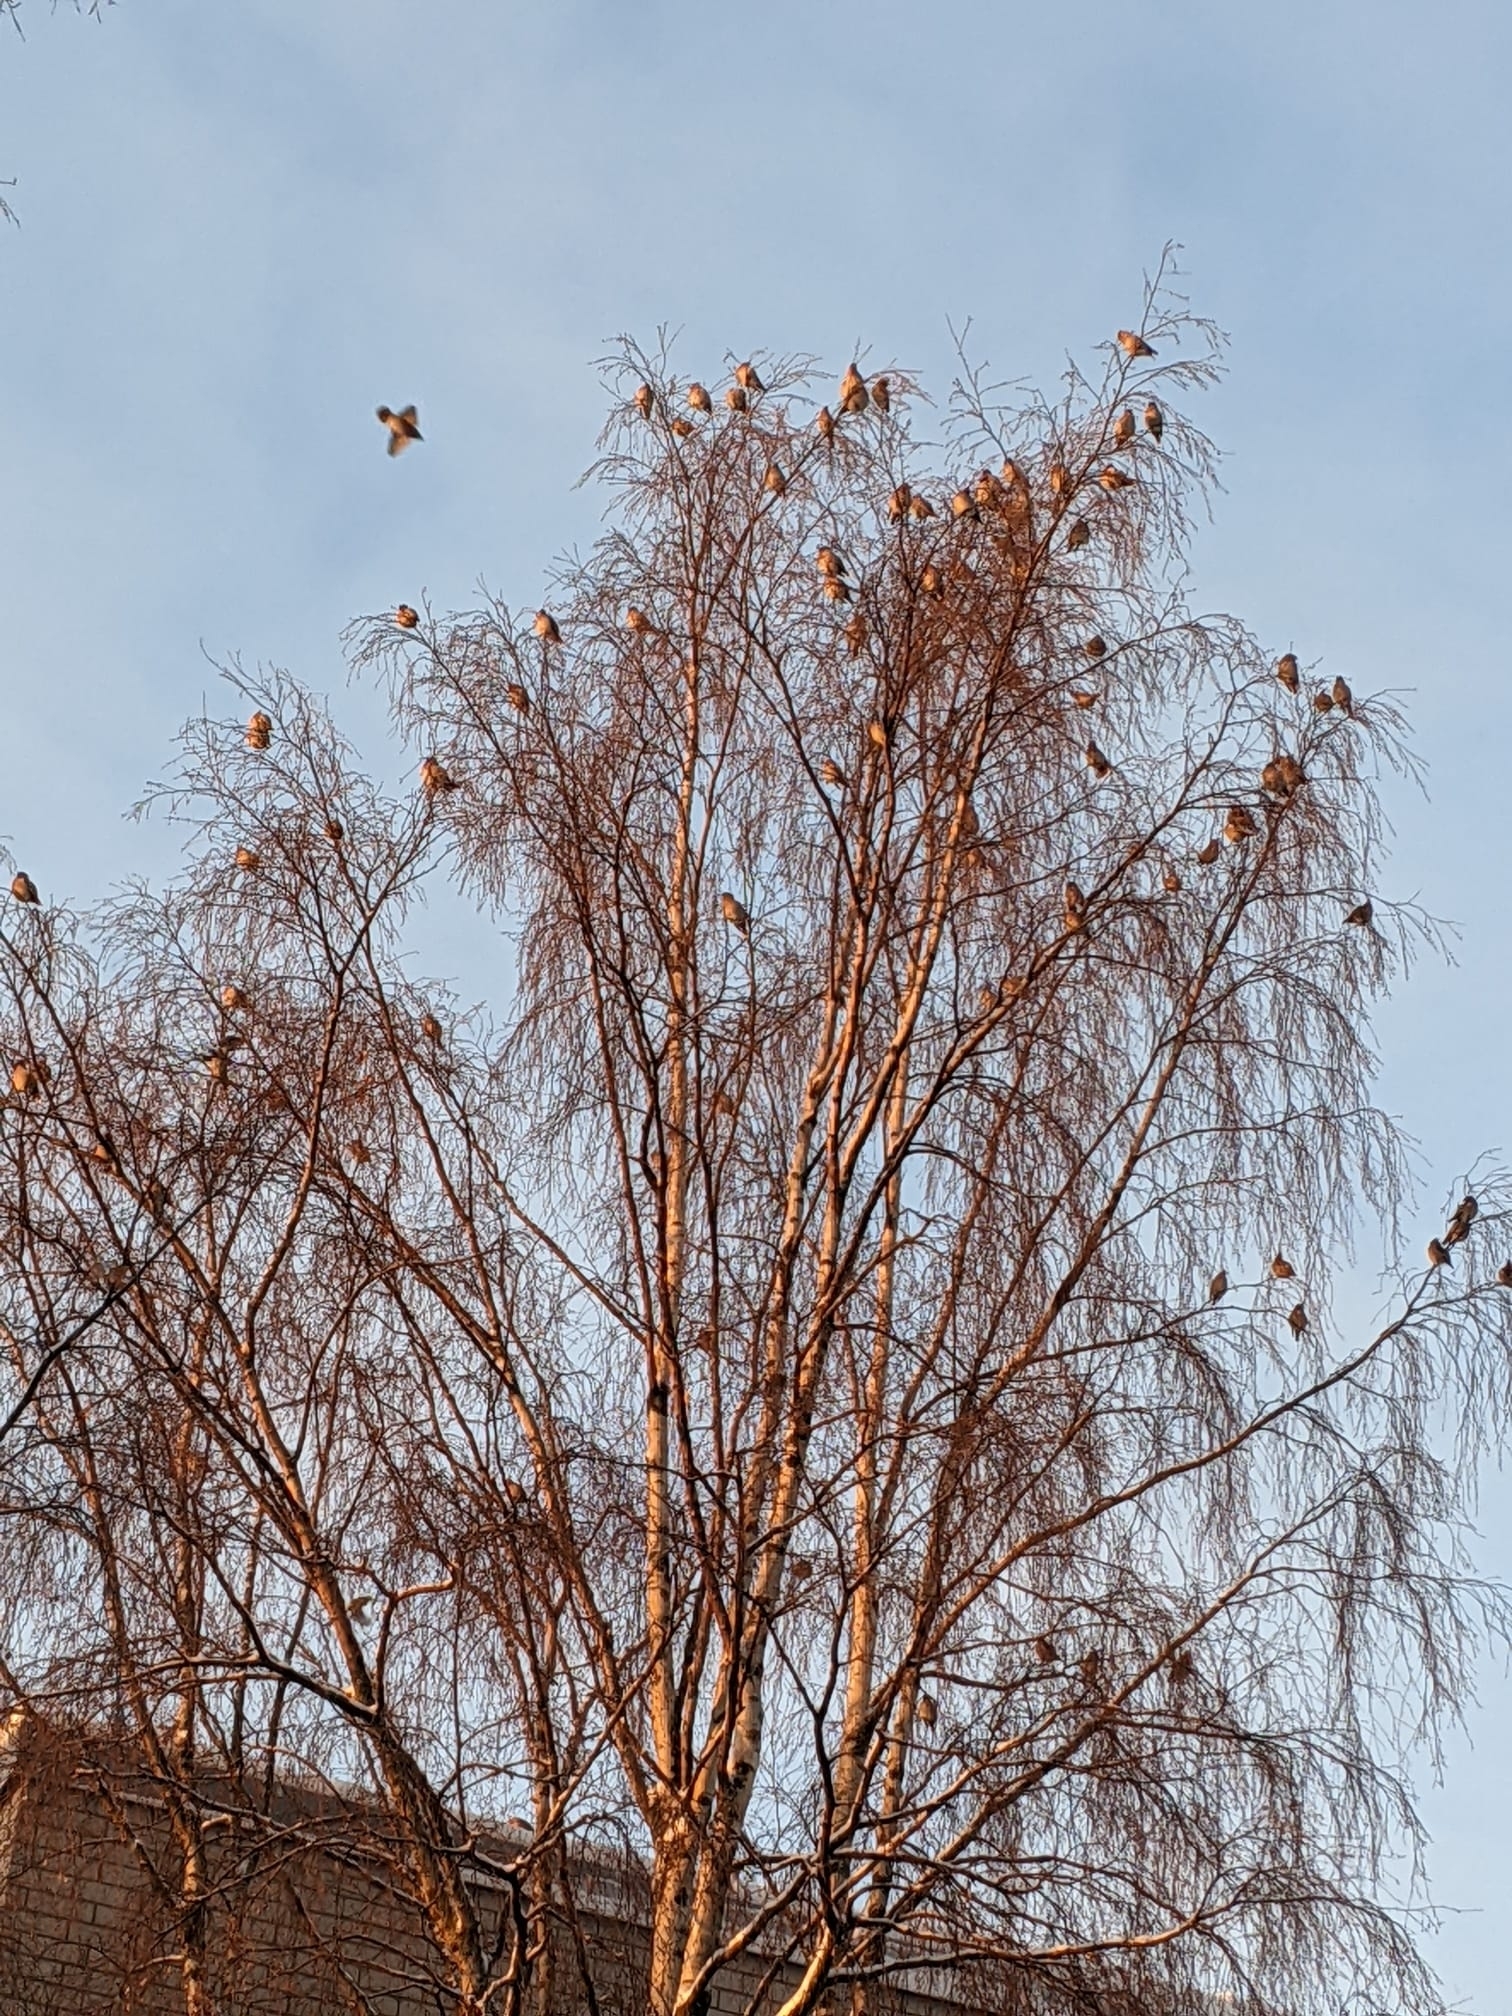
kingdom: Animalia
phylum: Chordata
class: Aves
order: Passeriformes
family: Bombycillidae
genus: Bombycilla
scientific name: Bombycilla garrulus
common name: Bohemian waxwing
